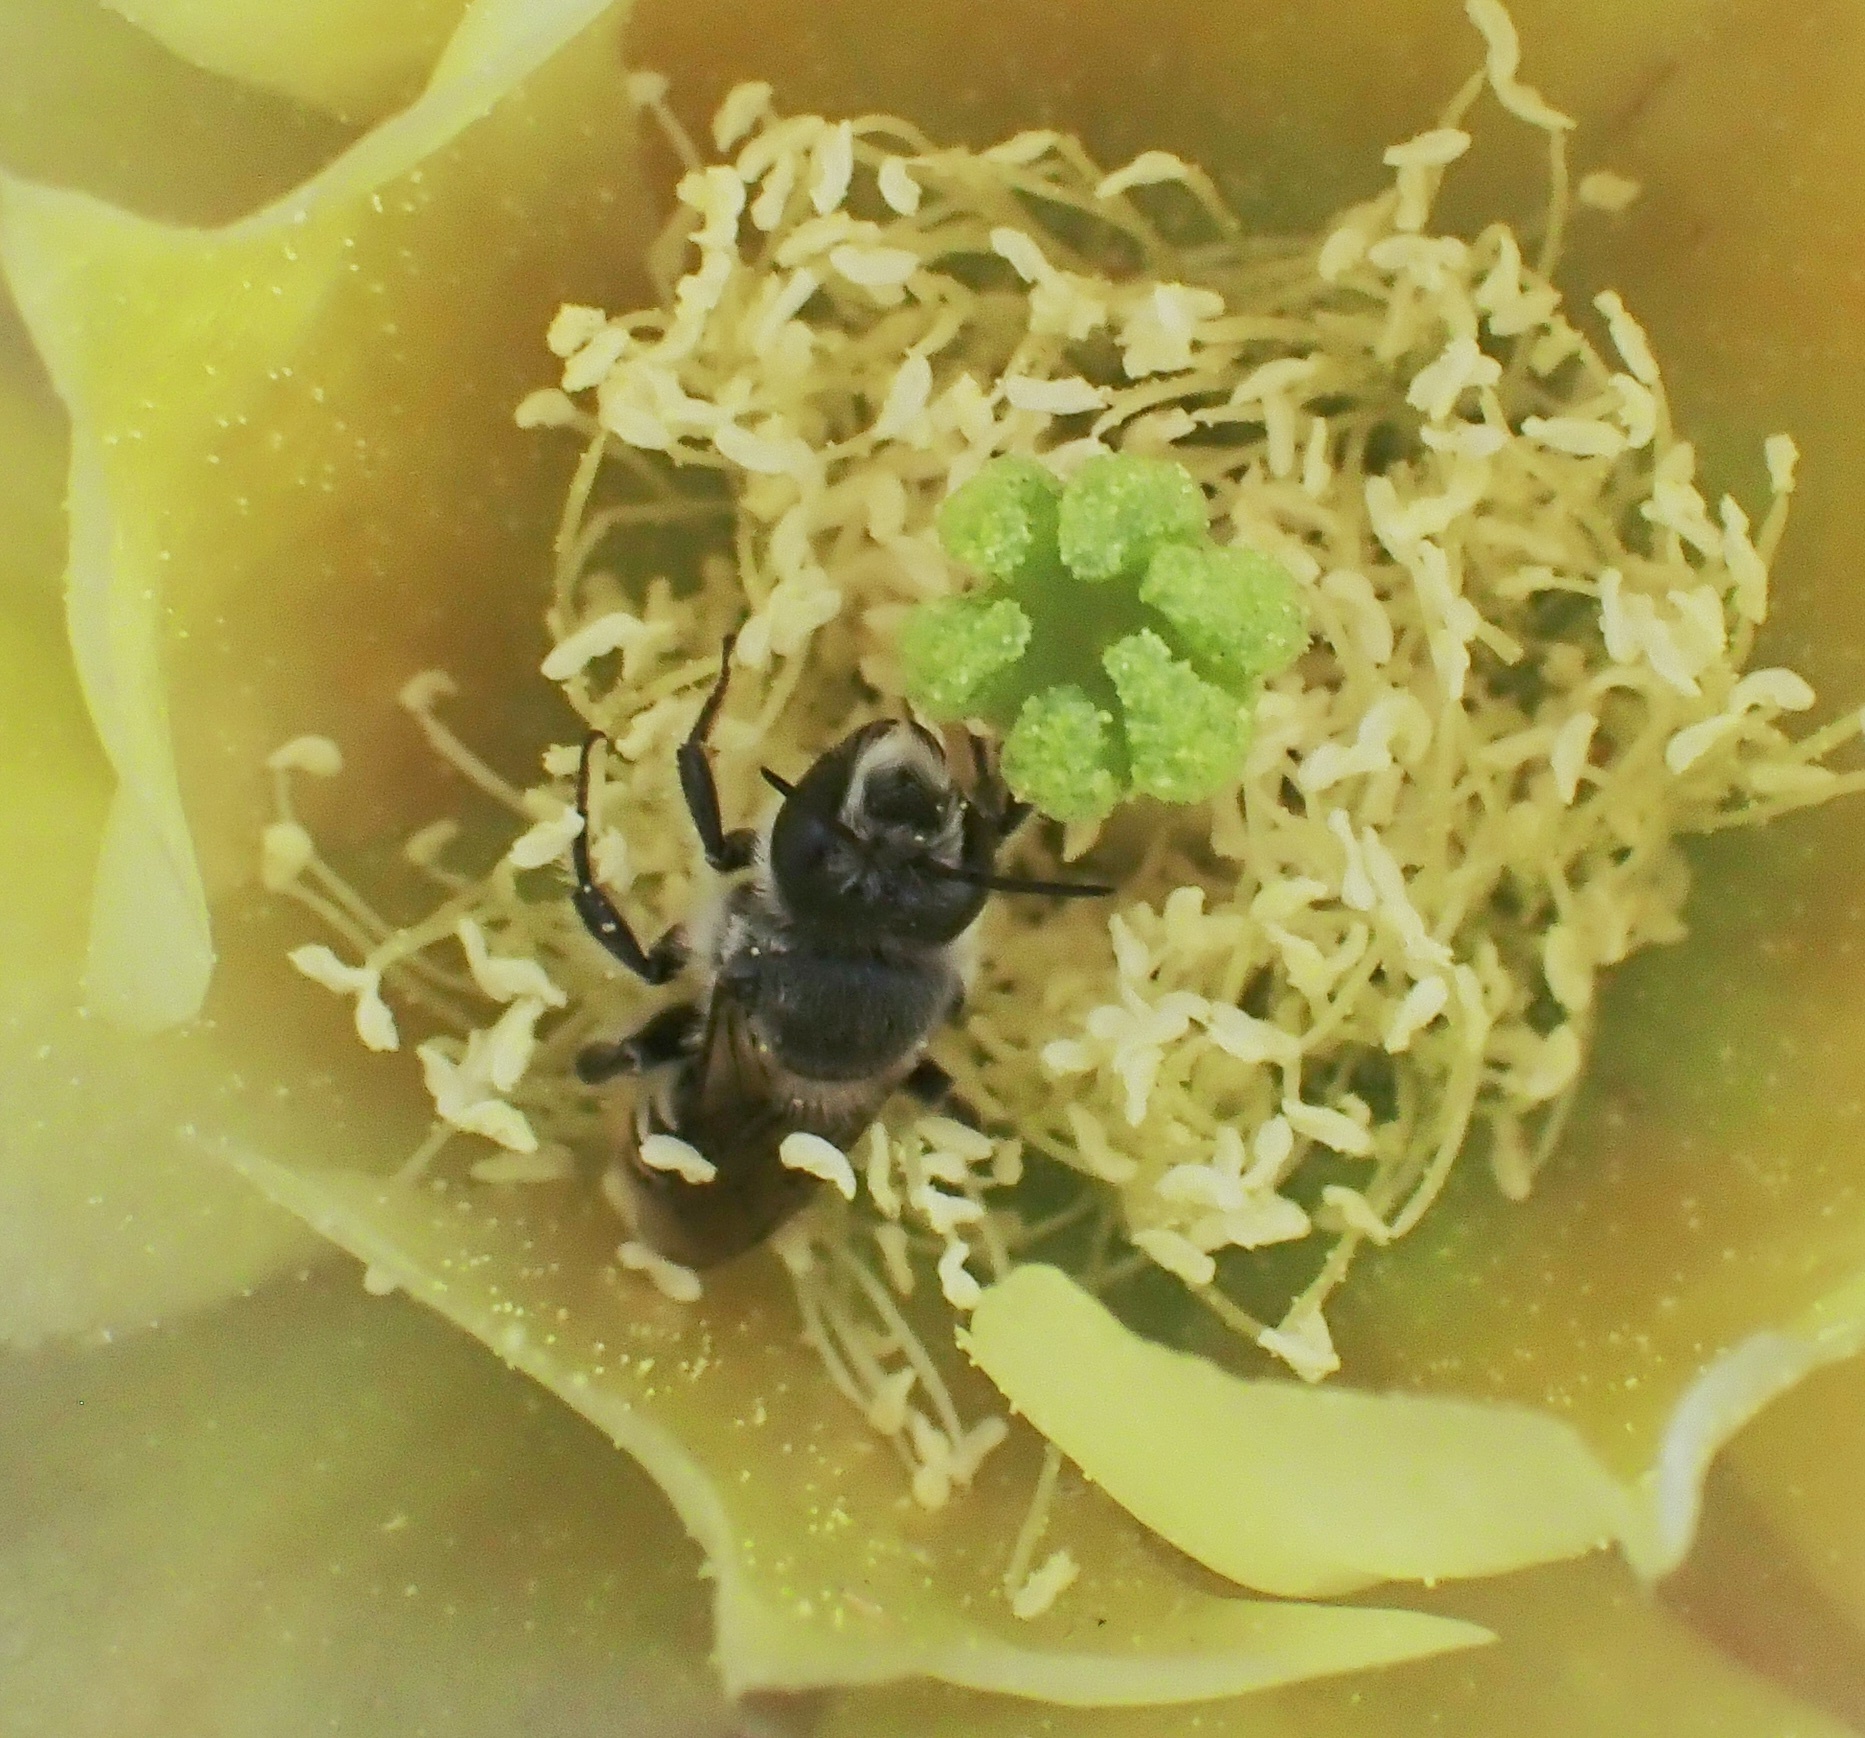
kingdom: Animalia
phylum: Arthropoda
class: Insecta
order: Hymenoptera
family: Megachilidae
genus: Lithurgopsis
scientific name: Lithurgopsis apicalis
